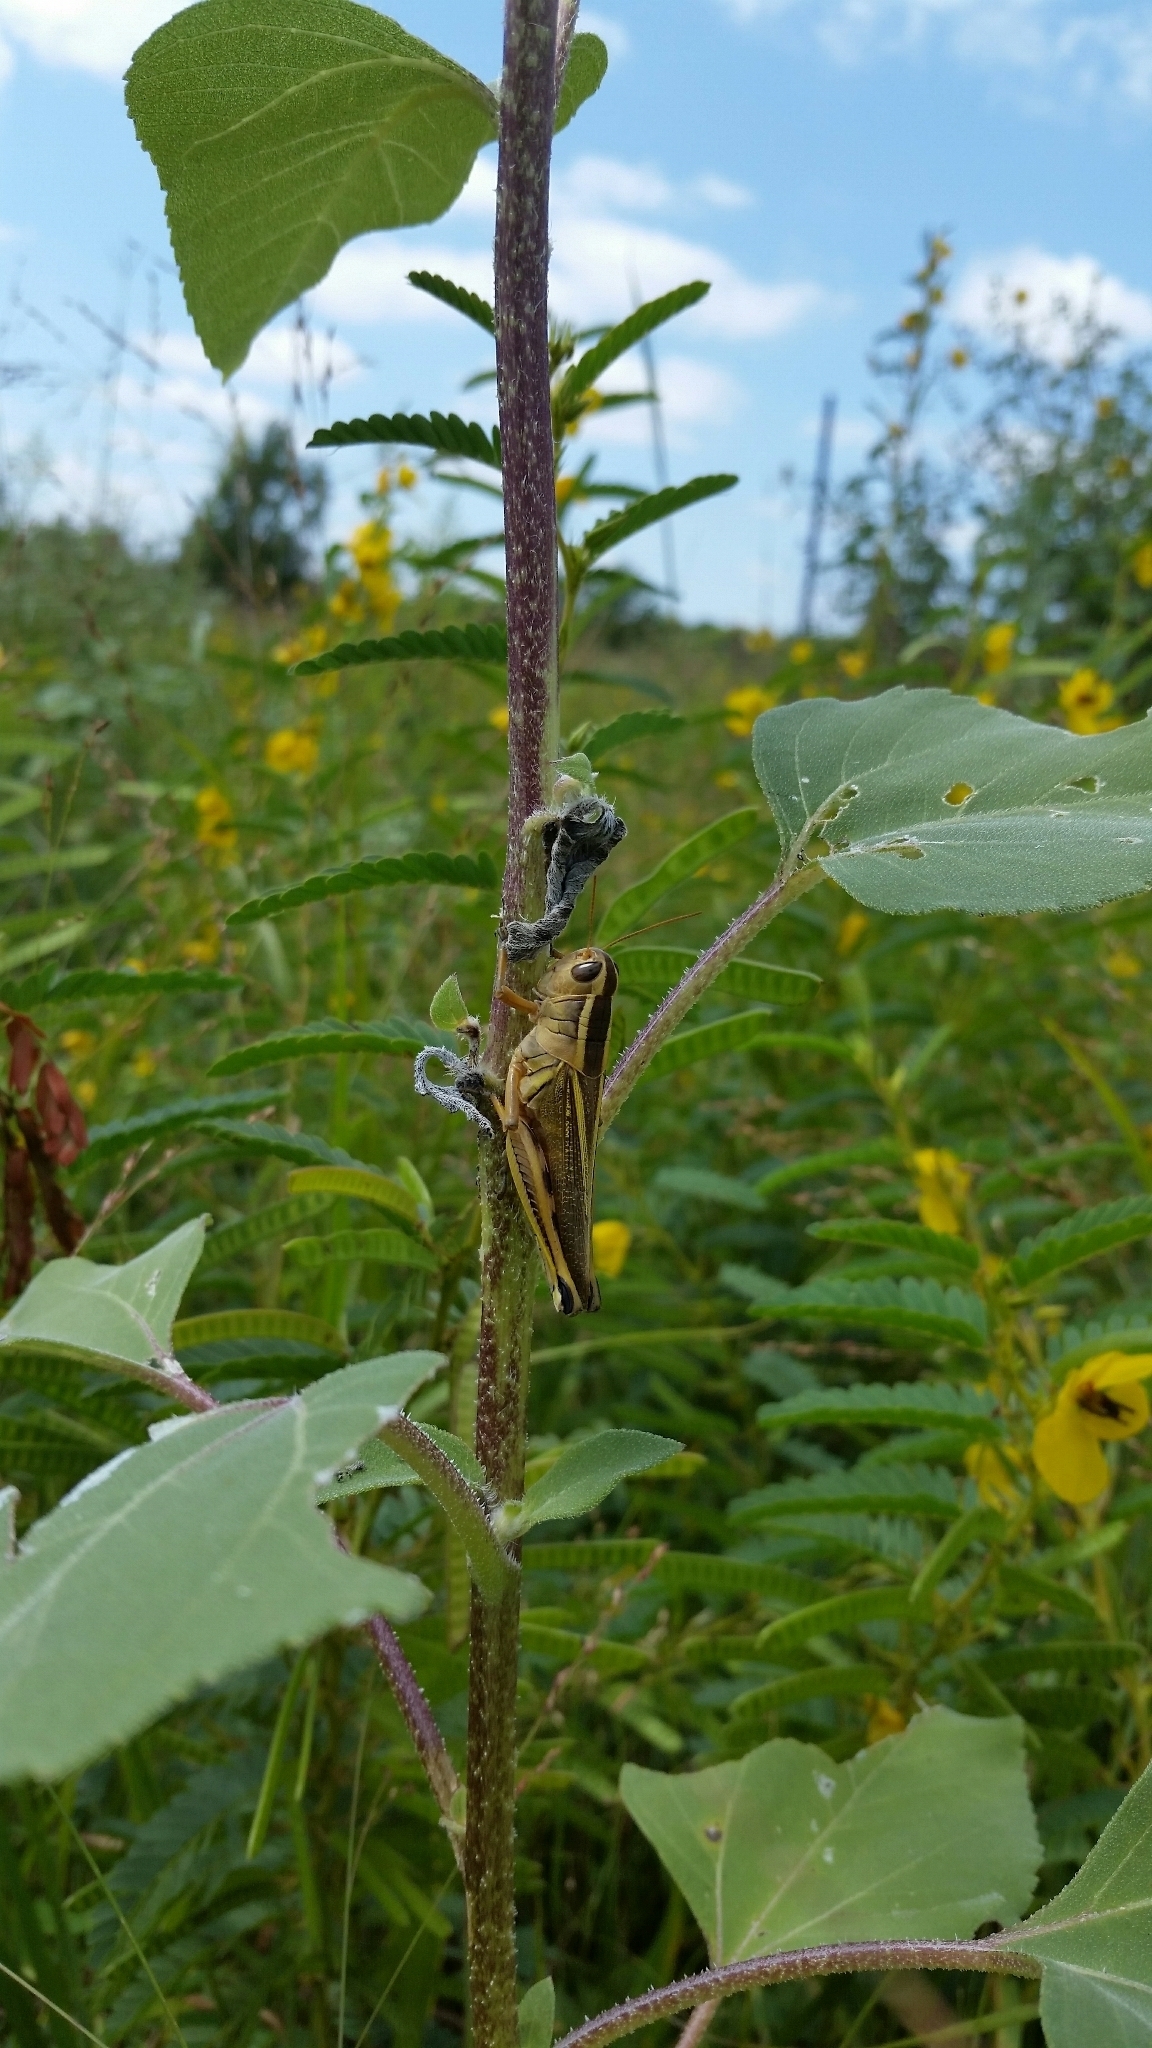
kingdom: Animalia
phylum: Arthropoda
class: Insecta
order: Orthoptera
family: Acrididae
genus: Melanoplus
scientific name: Melanoplus bivittatus
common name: Two-striped grasshopper
